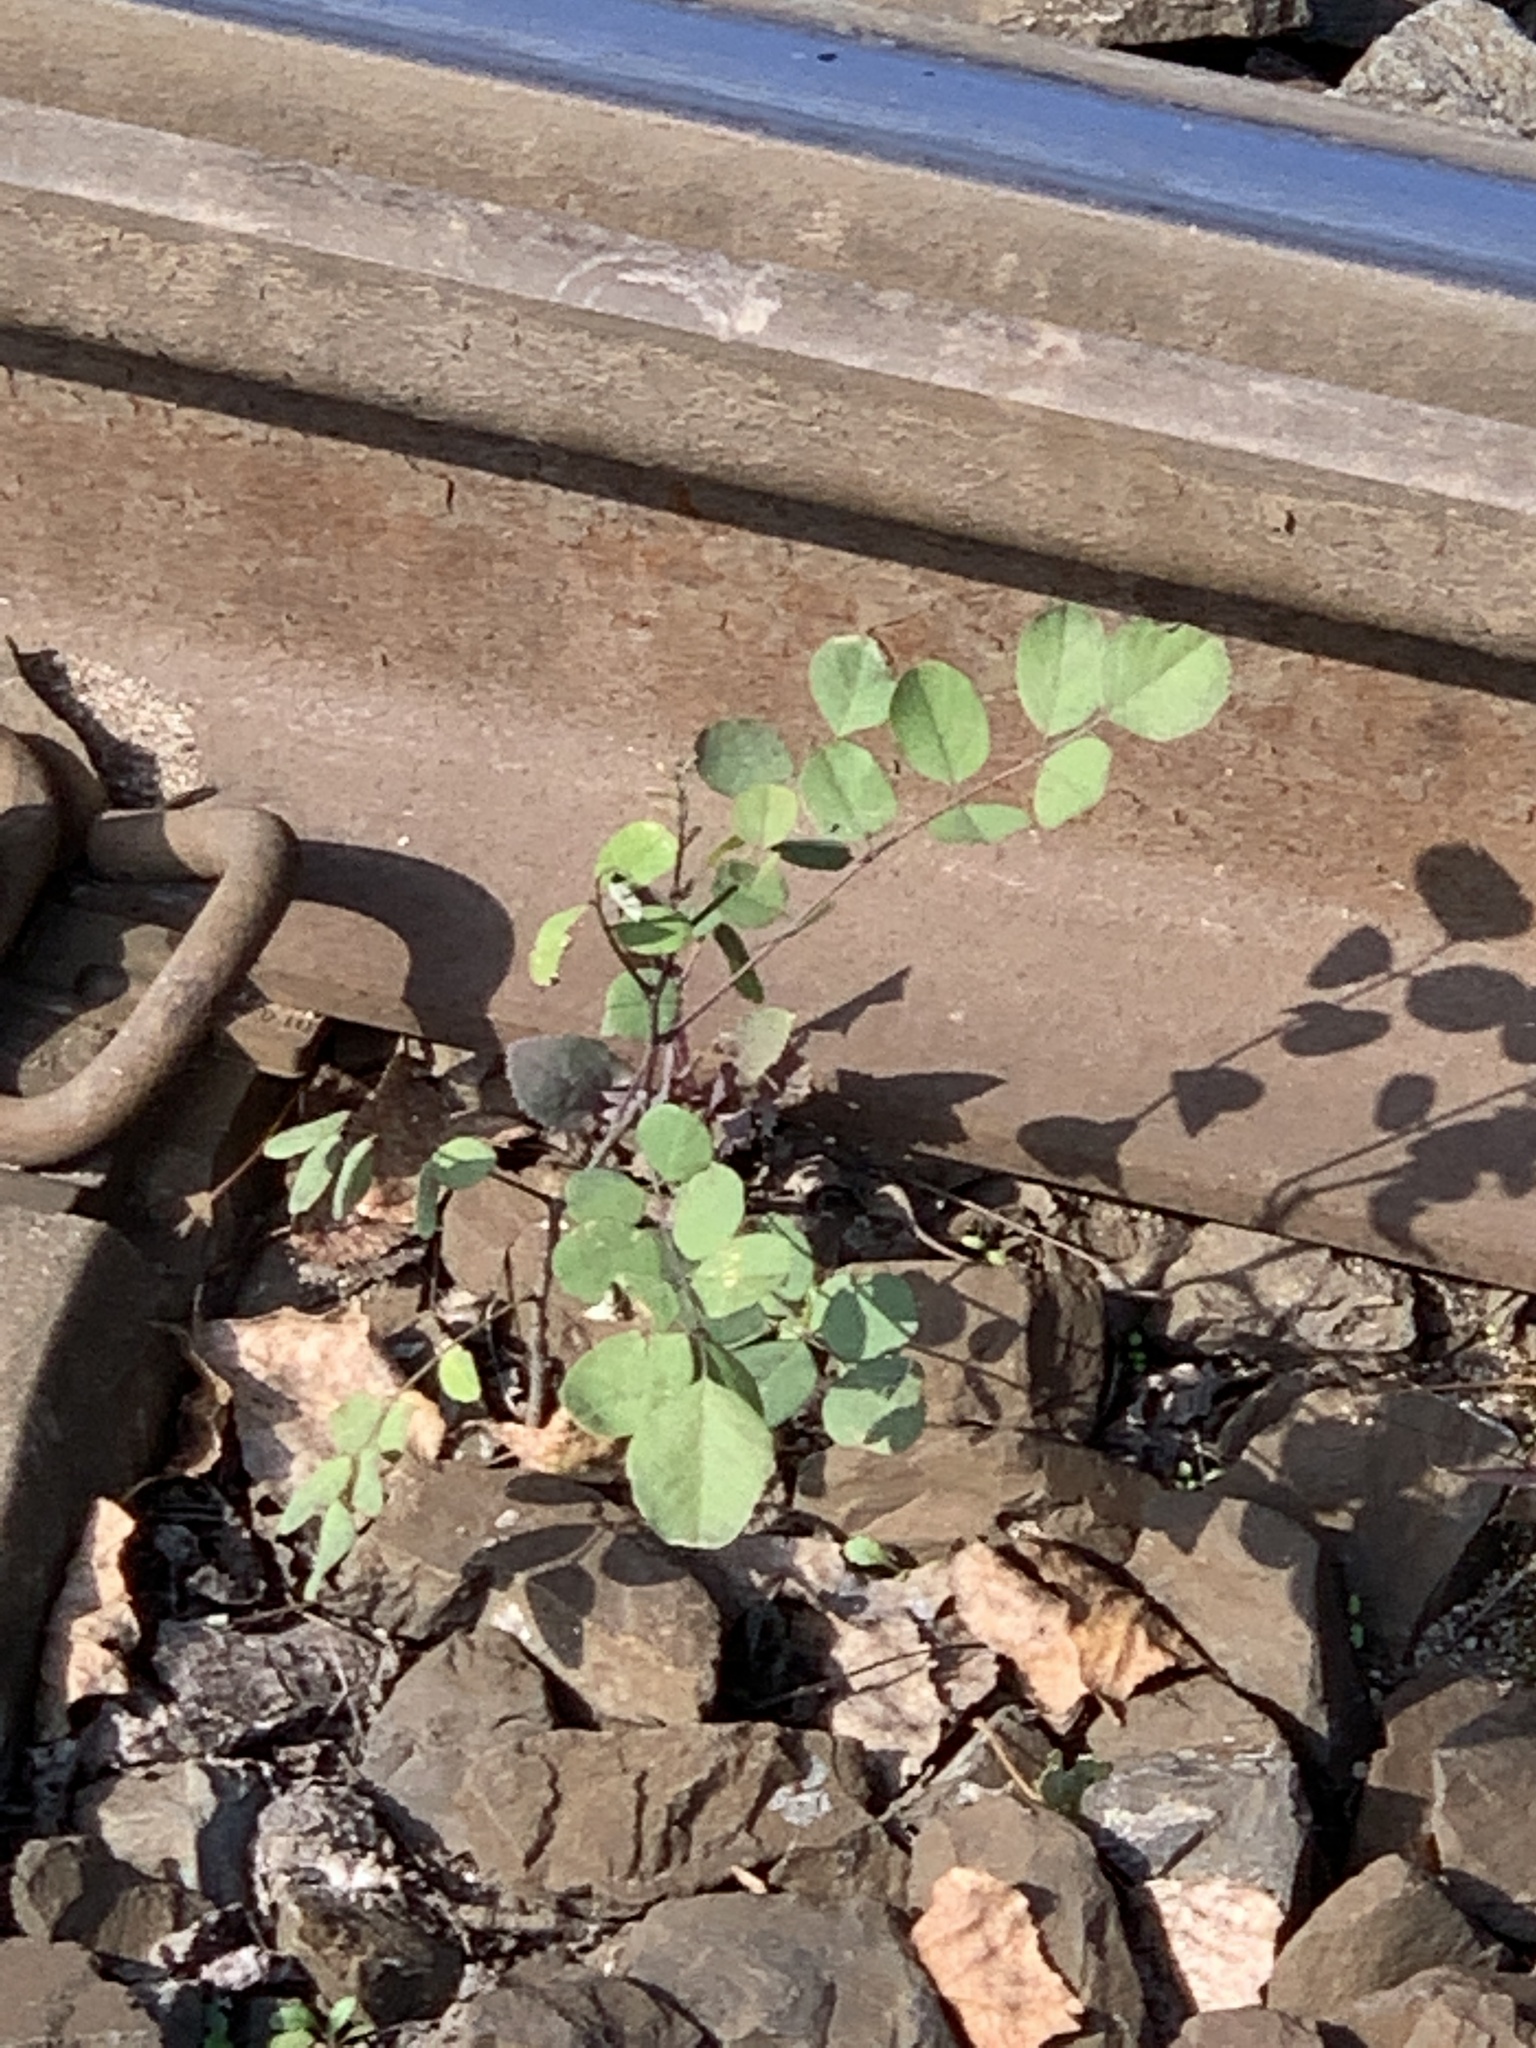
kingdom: Plantae
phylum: Tracheophyta
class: Magnoliopsida
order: Fabales
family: Fabaceae
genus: Robinia
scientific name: Robinia pseudoacacia
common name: Black locust
